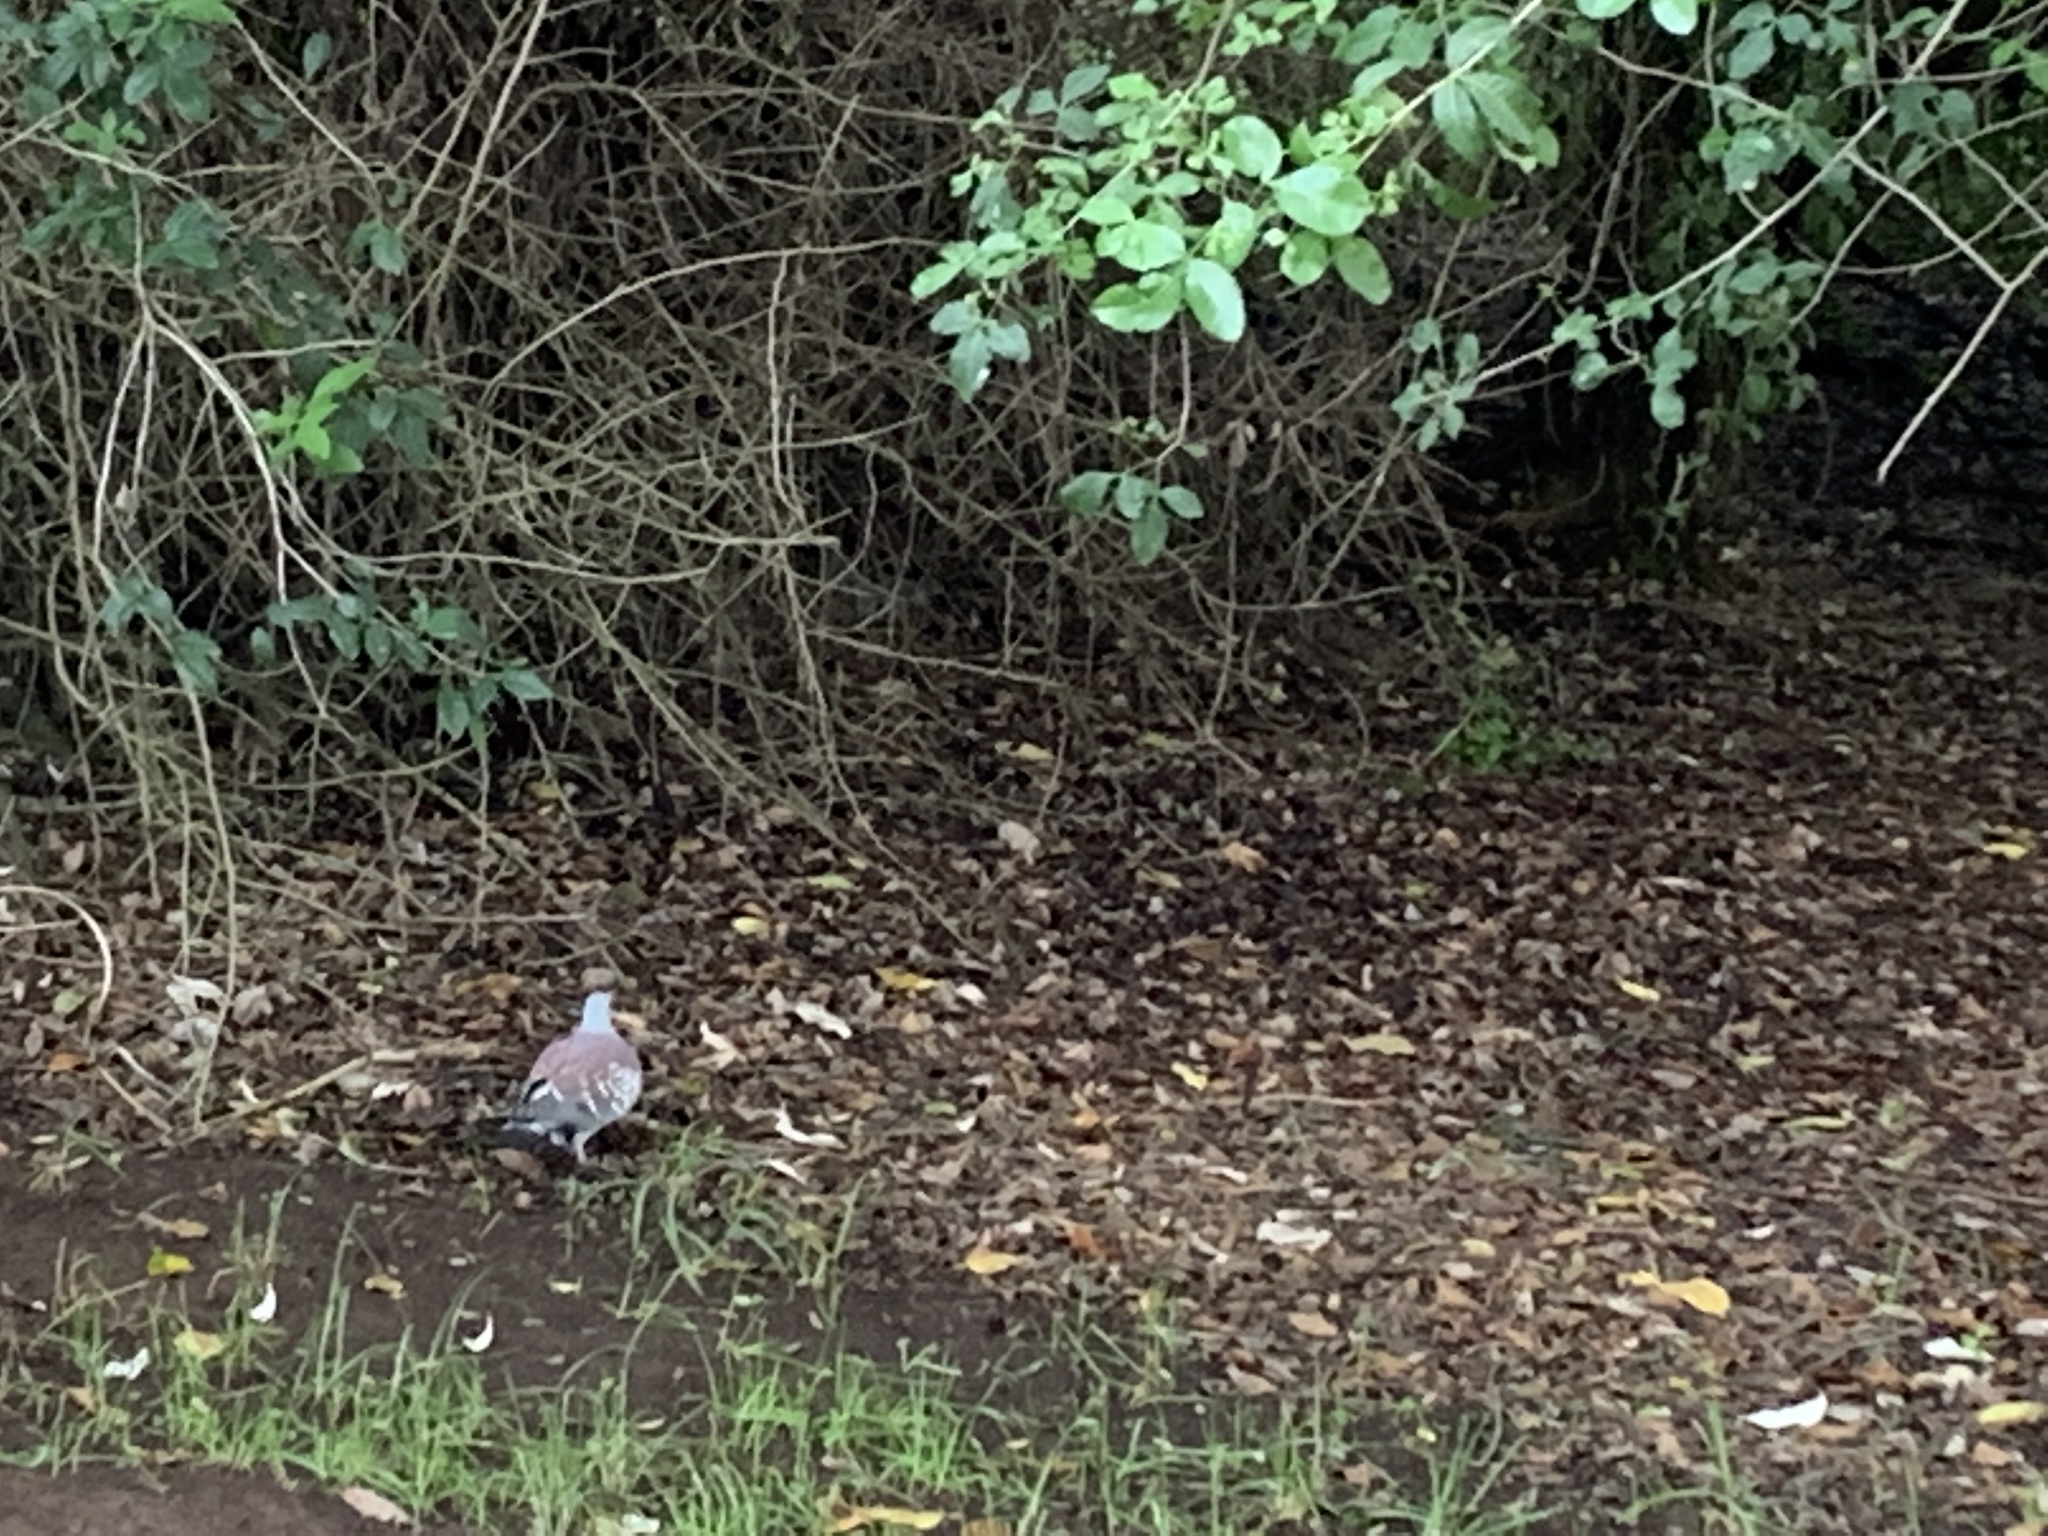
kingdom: Animalia
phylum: Chordata
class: Aves
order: Columbiformes
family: Columbidae
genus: Columba
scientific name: Columba guinea
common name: Speckled pigeon
